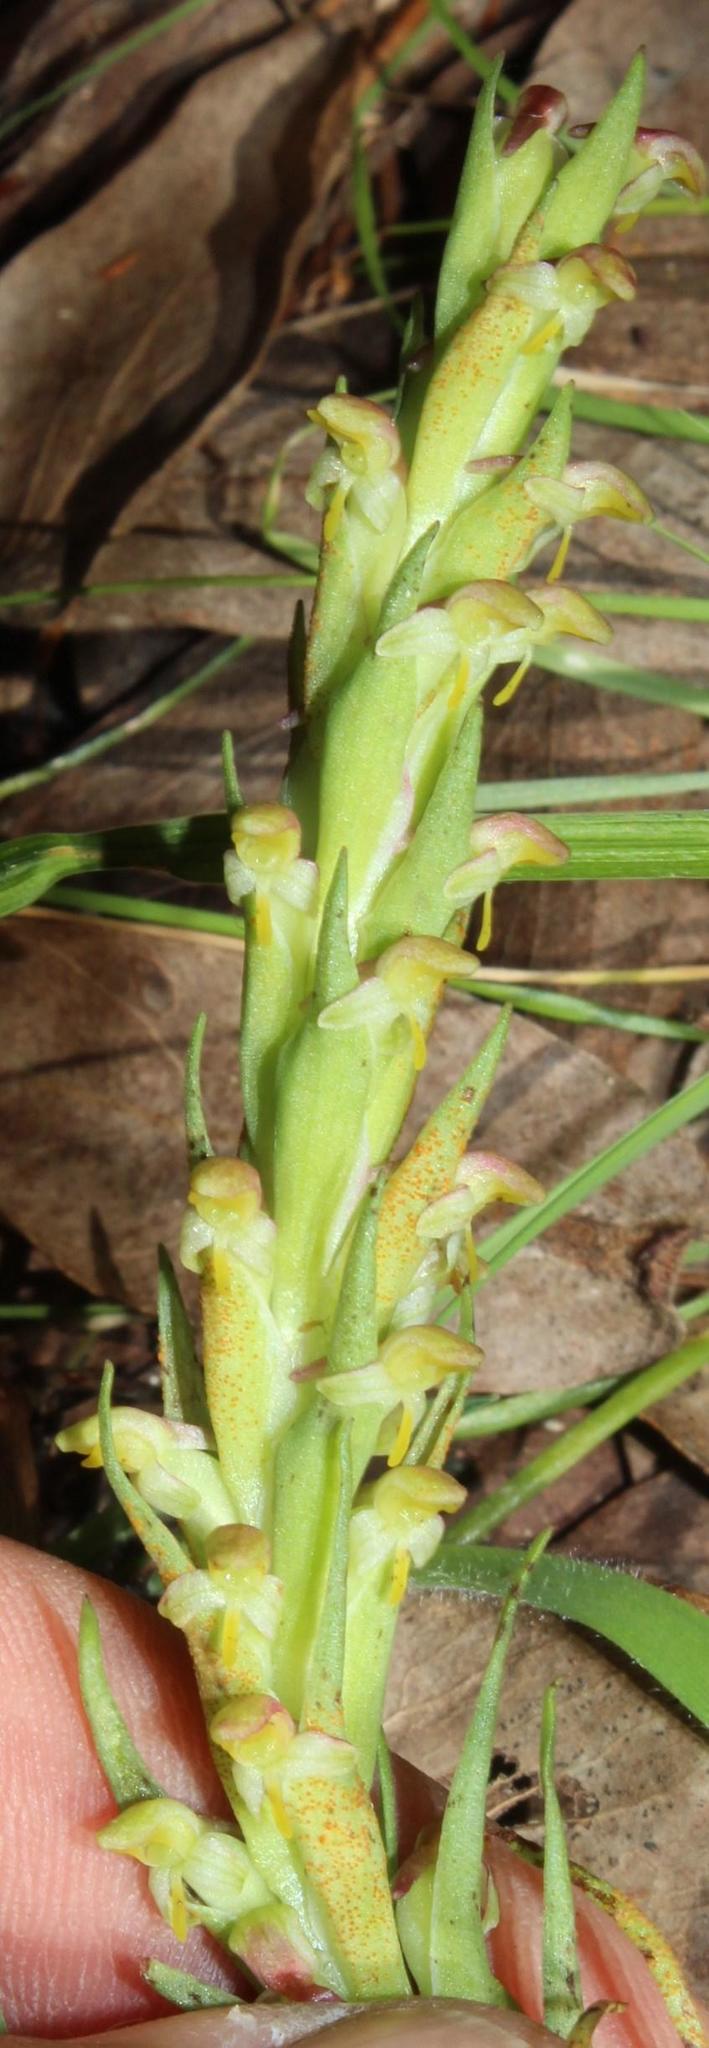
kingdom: Plantae
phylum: Tracheophyta
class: Liliopsida
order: Asparagales
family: Orchidaceae
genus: Disa
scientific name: Disa bracteata
